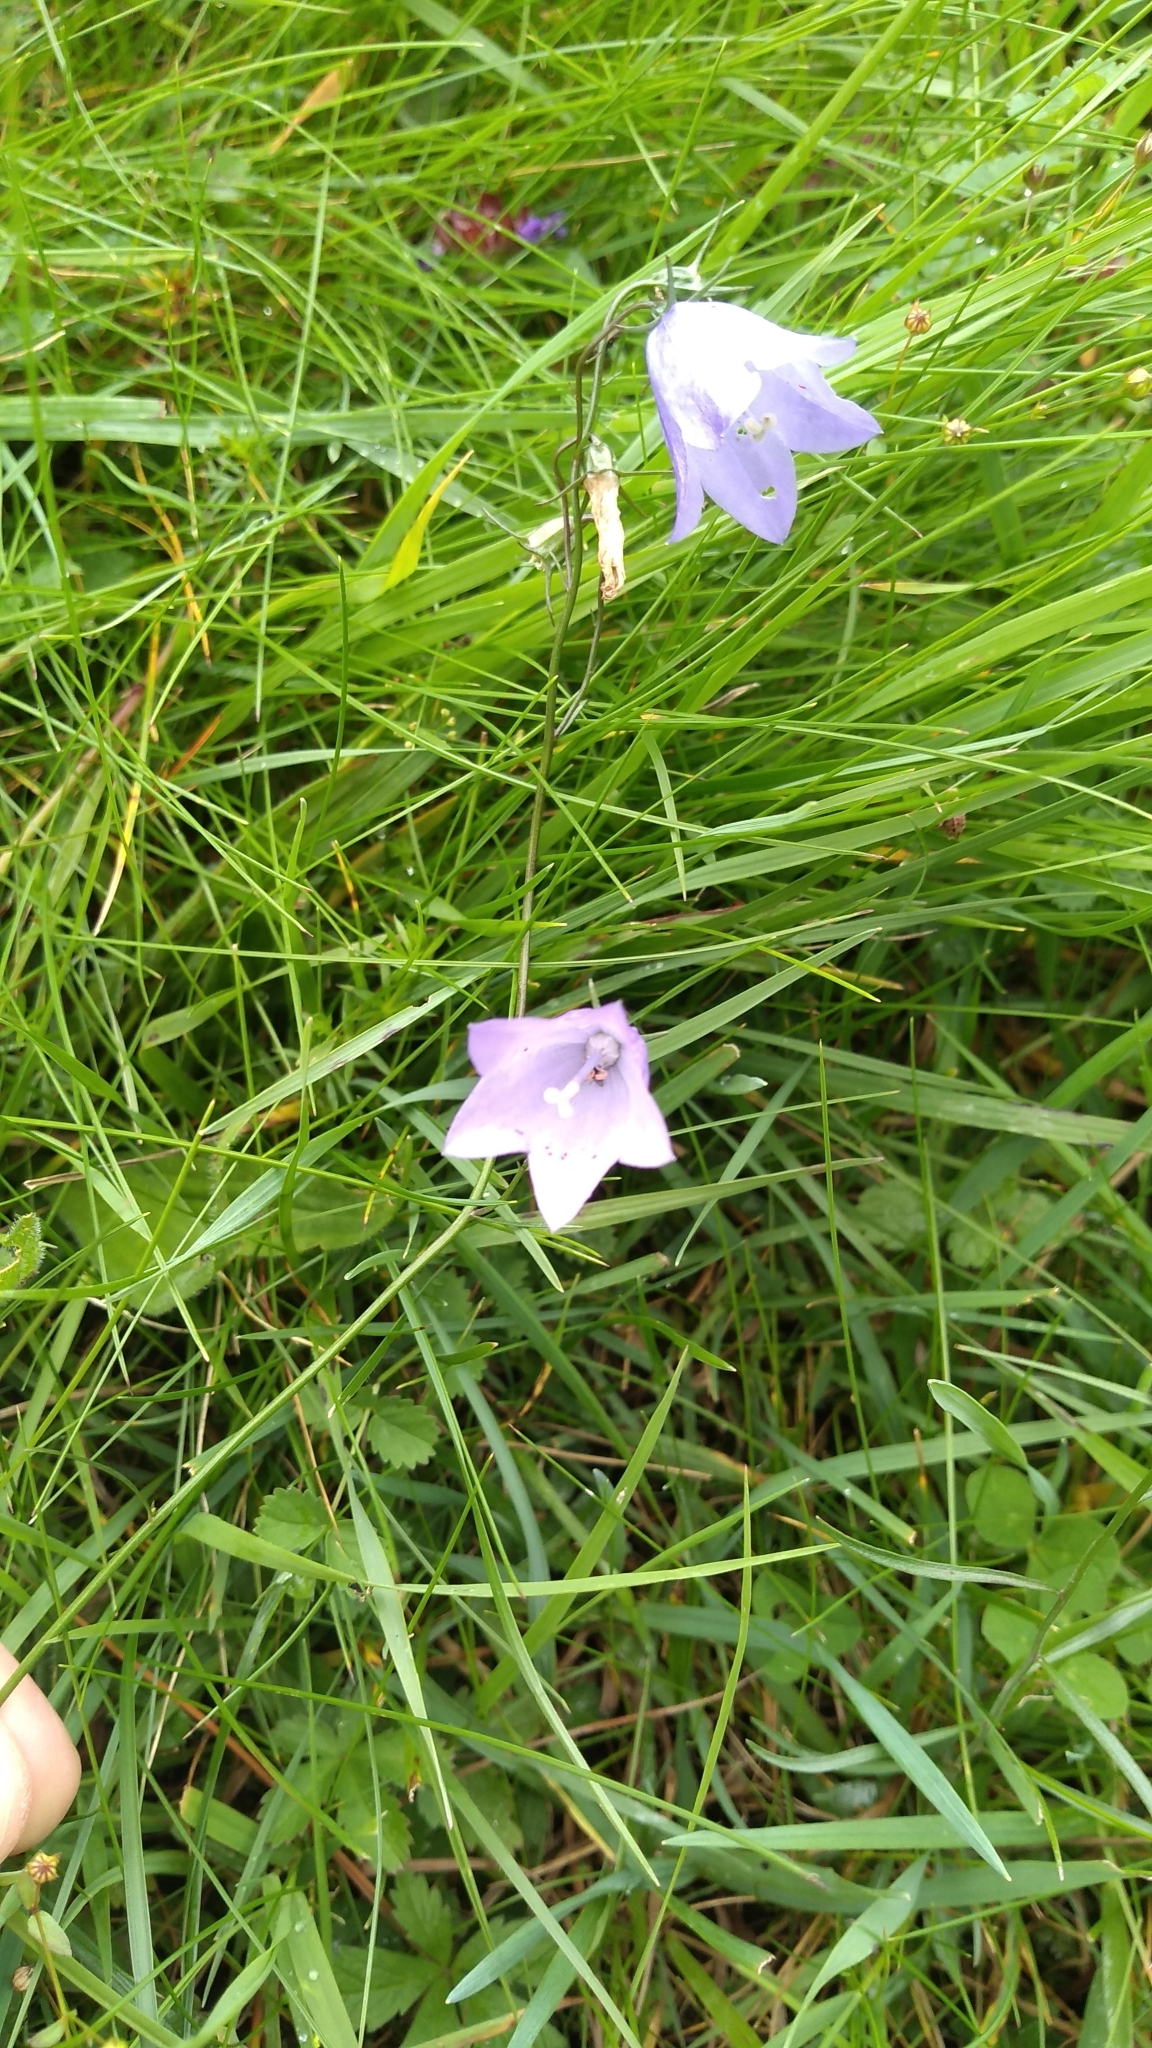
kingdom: Plantae
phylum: Tracheophyta
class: Magnoliopsida
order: Asterales
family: Campanulaceae
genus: Campanula
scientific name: Campanula rotundifolia
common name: Harebell
